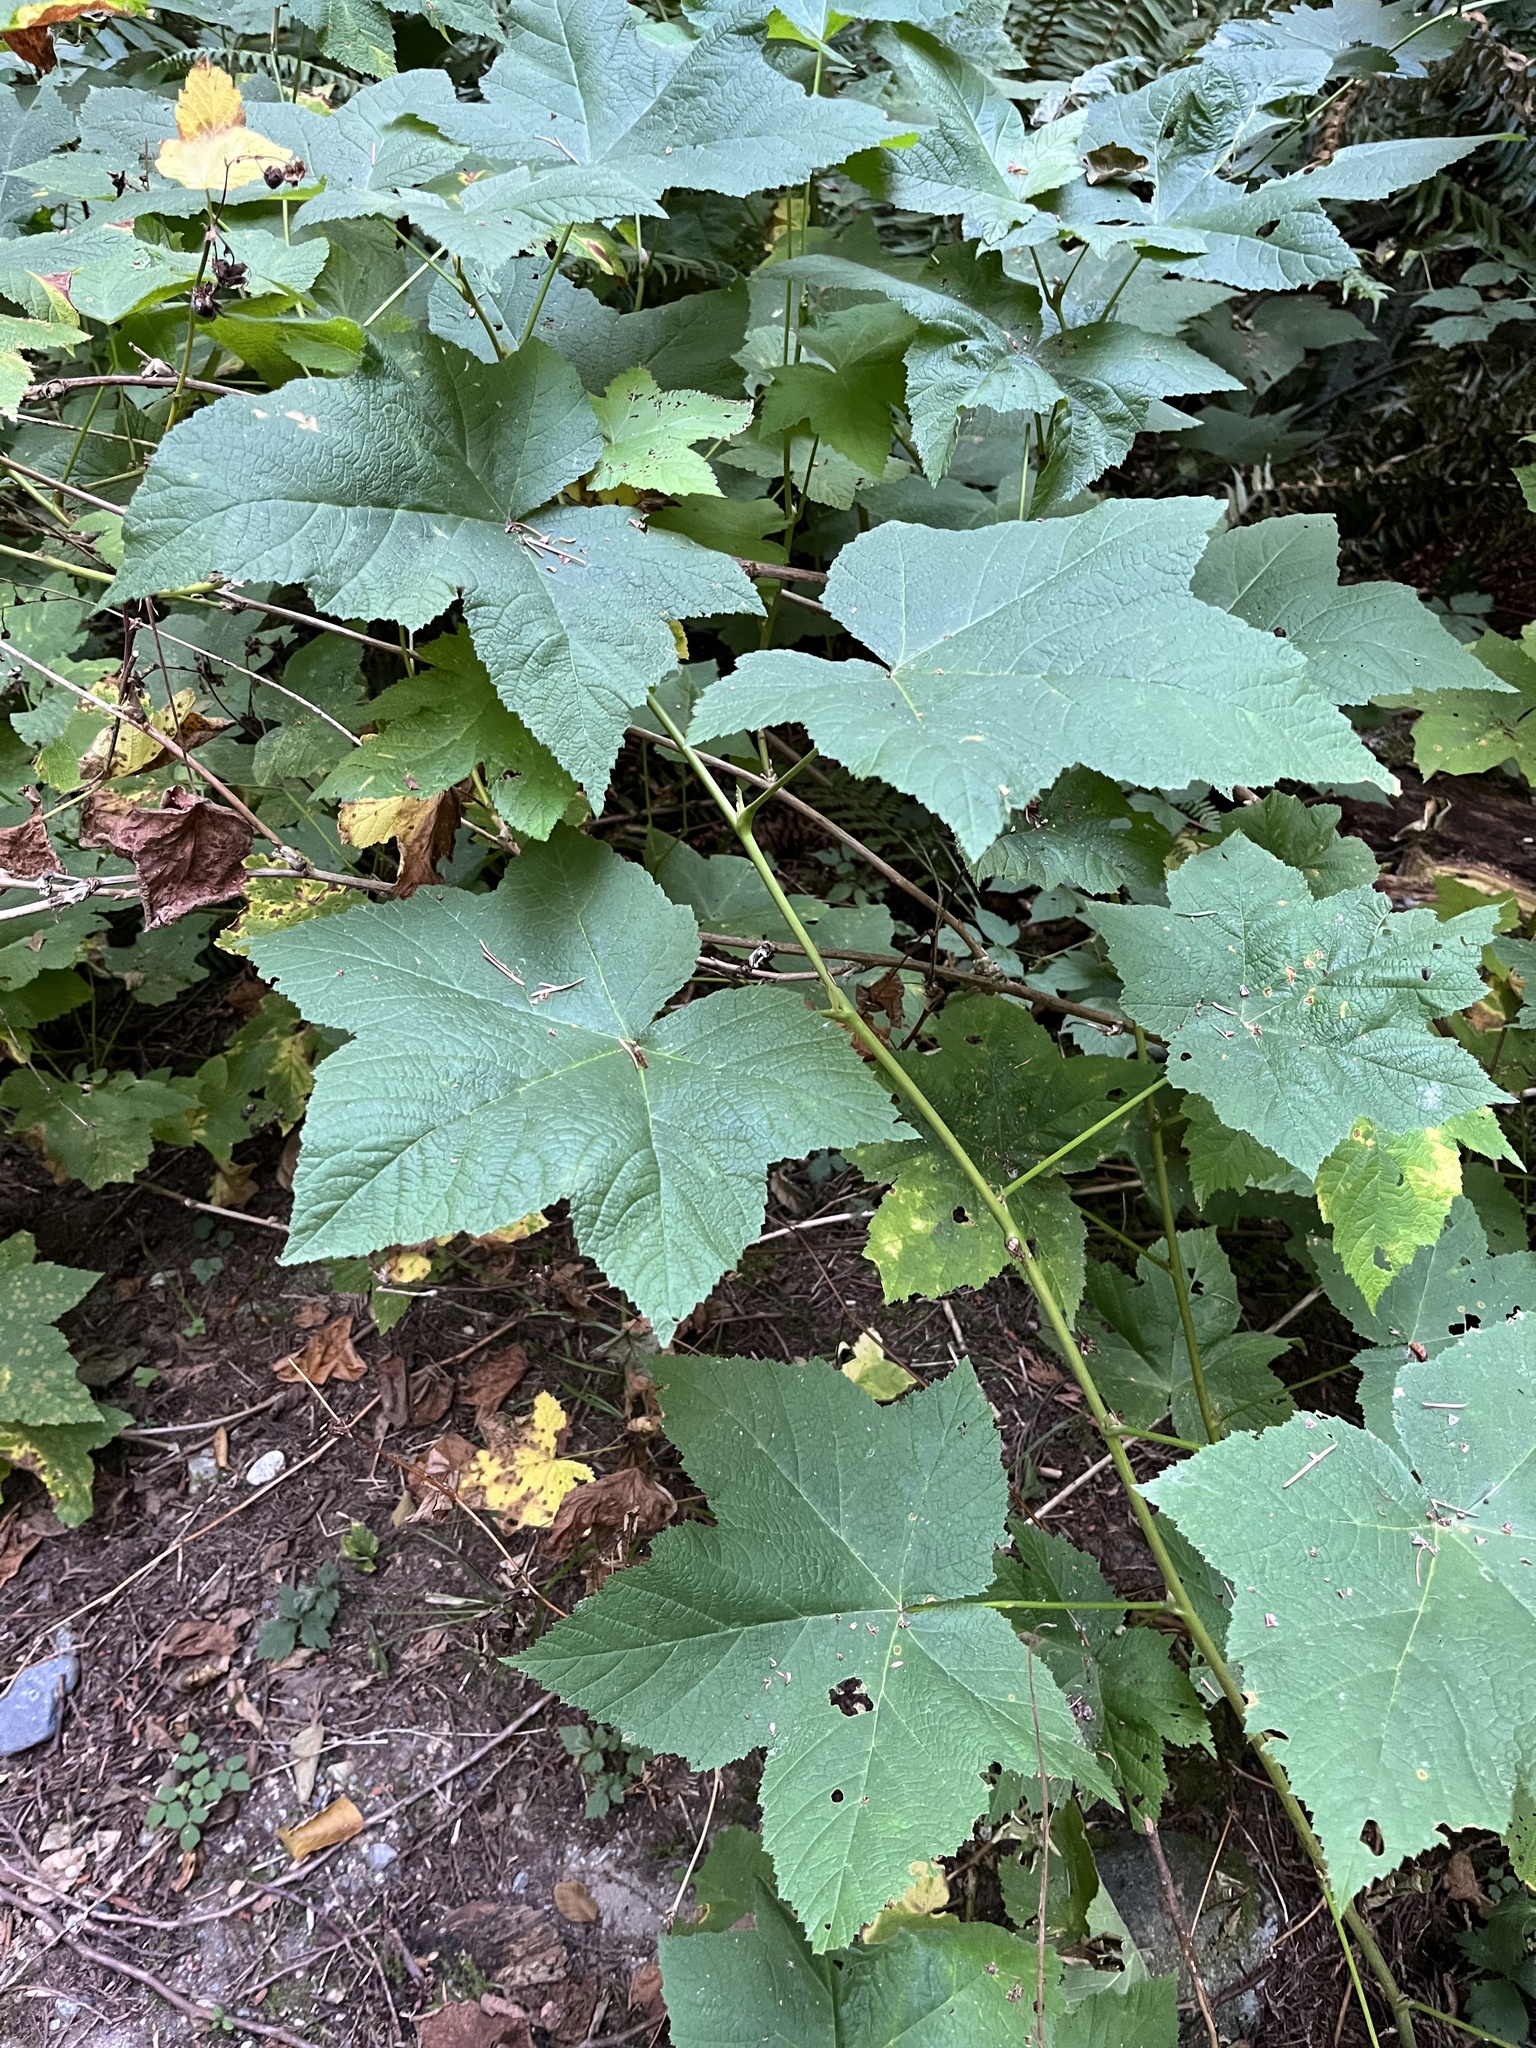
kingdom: Plantae
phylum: Tracheophyta
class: Magnoliopsida
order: Rosales
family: Rosaceae
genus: Rubus
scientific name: Rubus parviflorus
